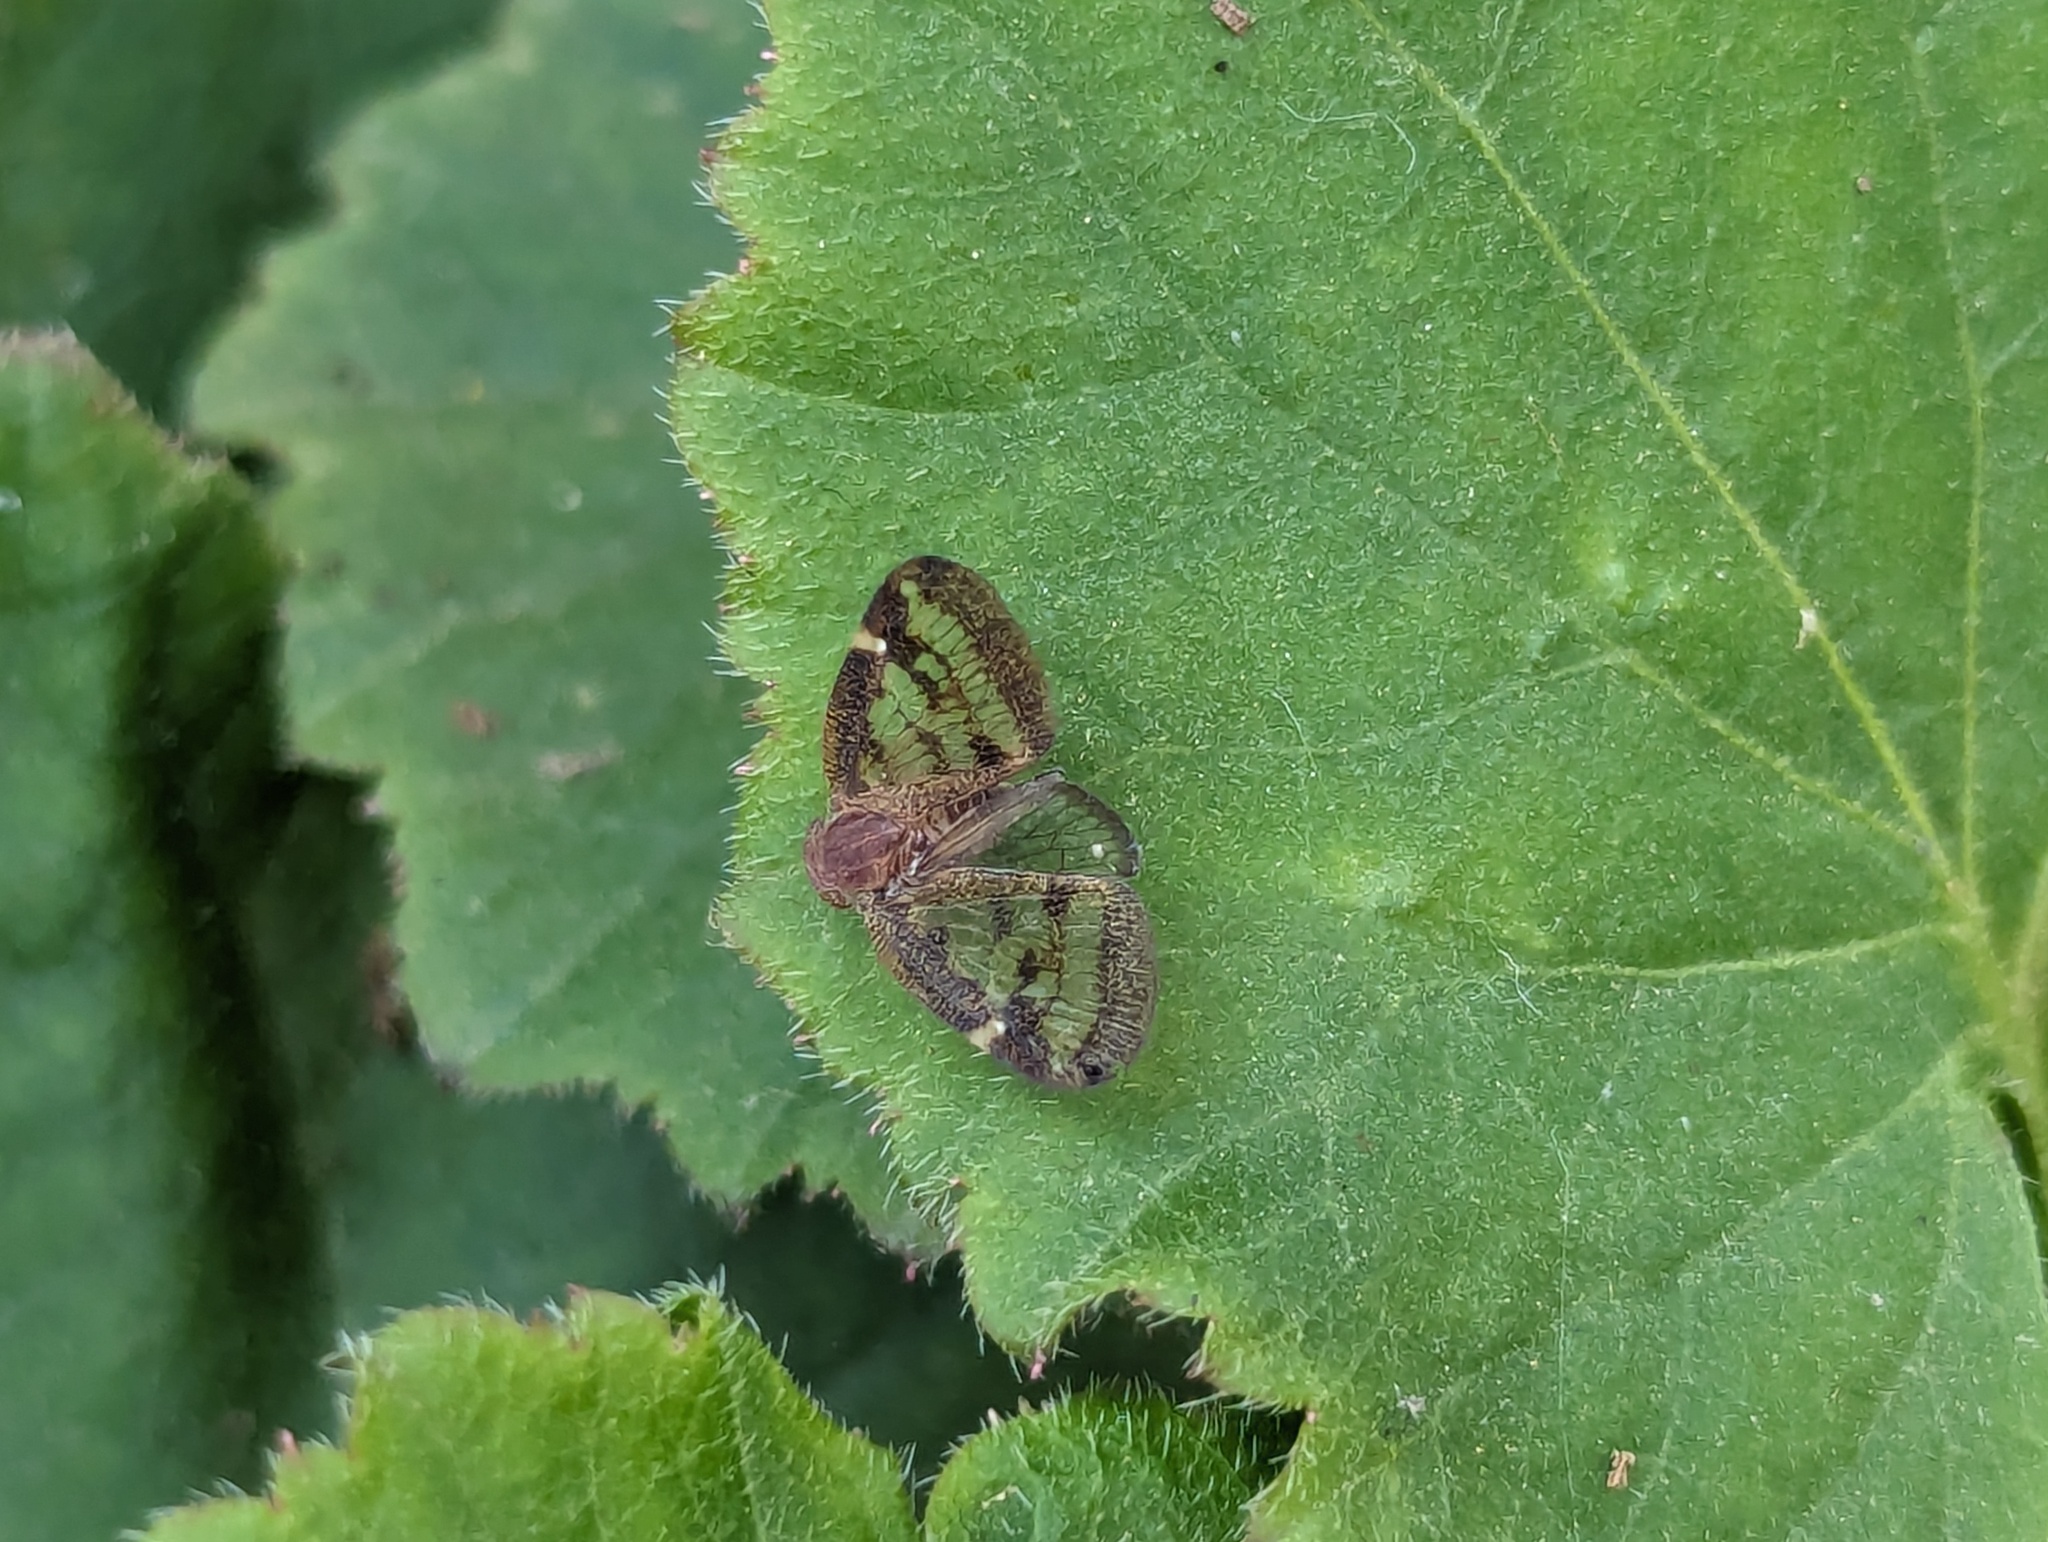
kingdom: Animalia
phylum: Arthropoda
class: Insecta
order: Hemiptera
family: Ricaniidae
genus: Scolypopa
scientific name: Scolypopa australis
